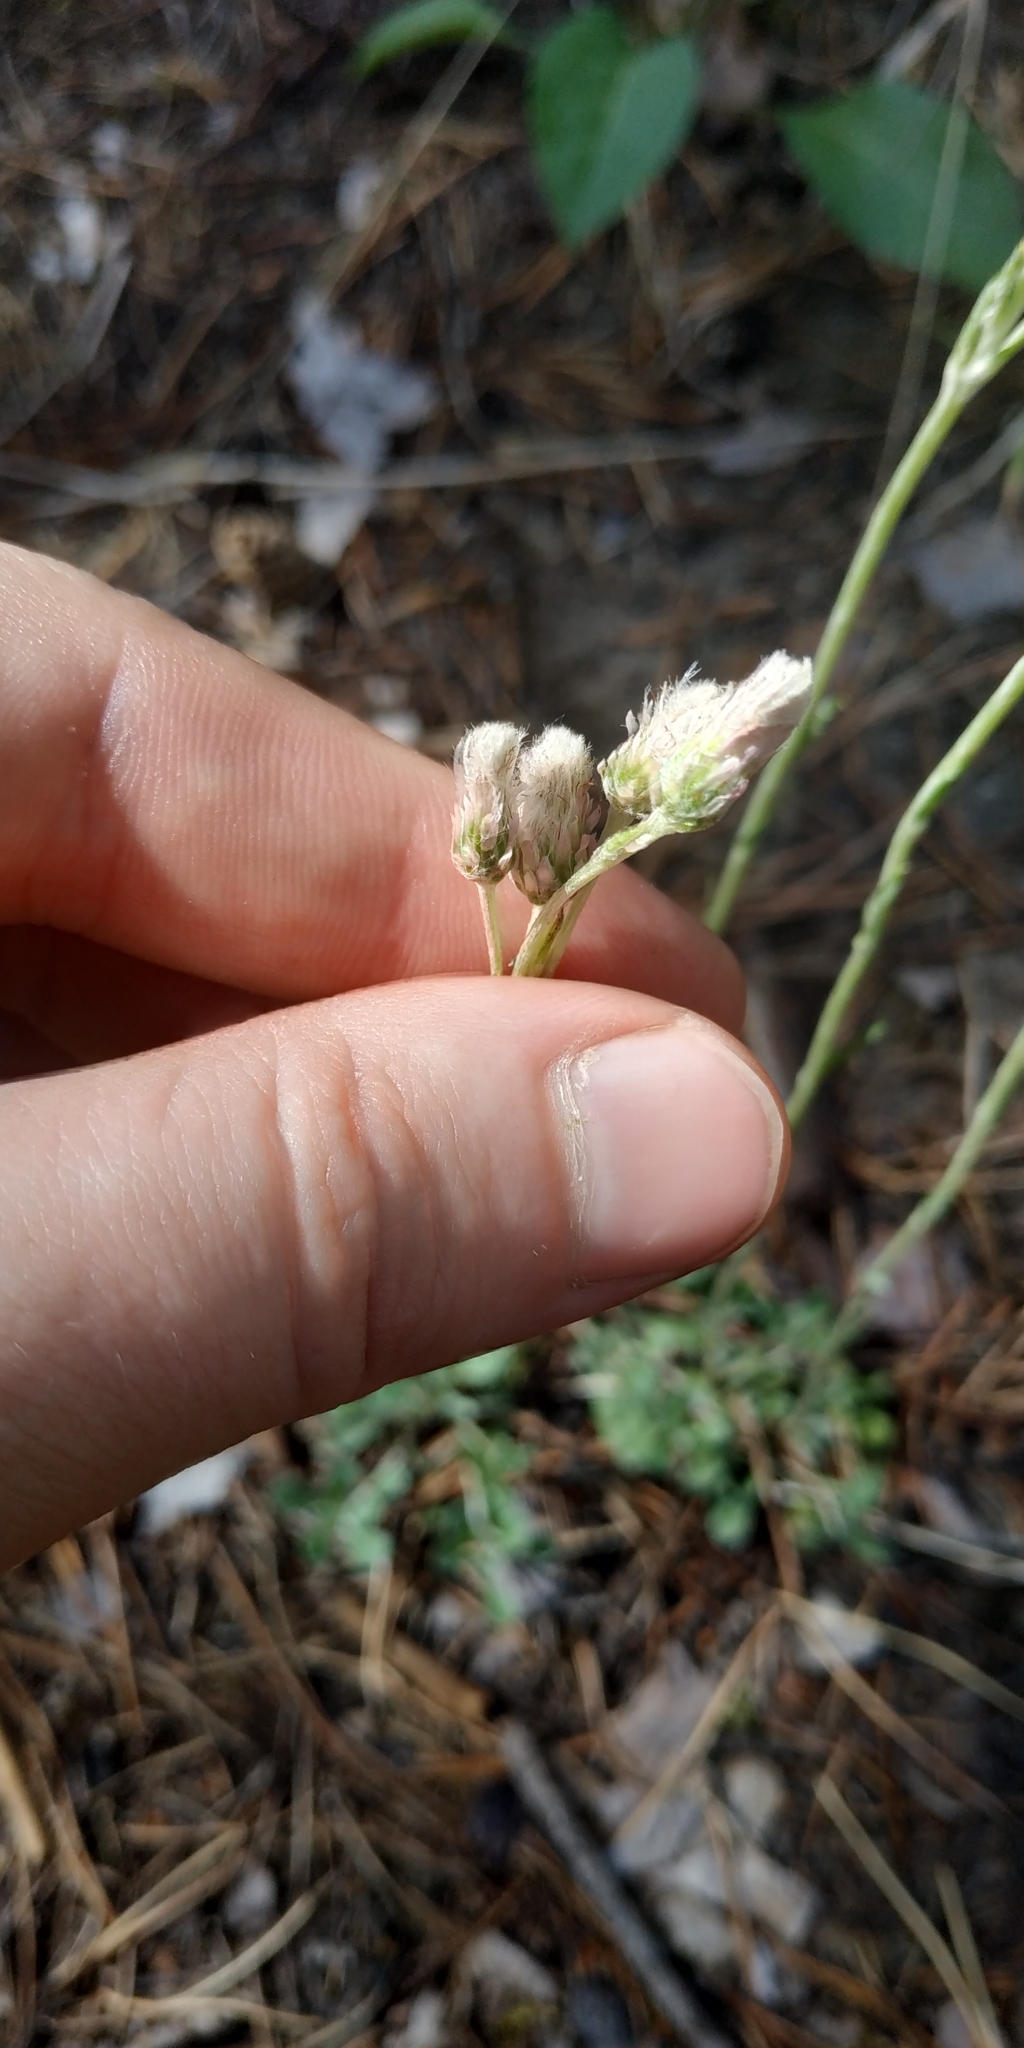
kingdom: Plantae
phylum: Tracheophyta
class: Magnoliopsida
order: Asterales
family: Asteraceae
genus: Antennaria
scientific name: Antennaria dioica
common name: Mountain everlasting
